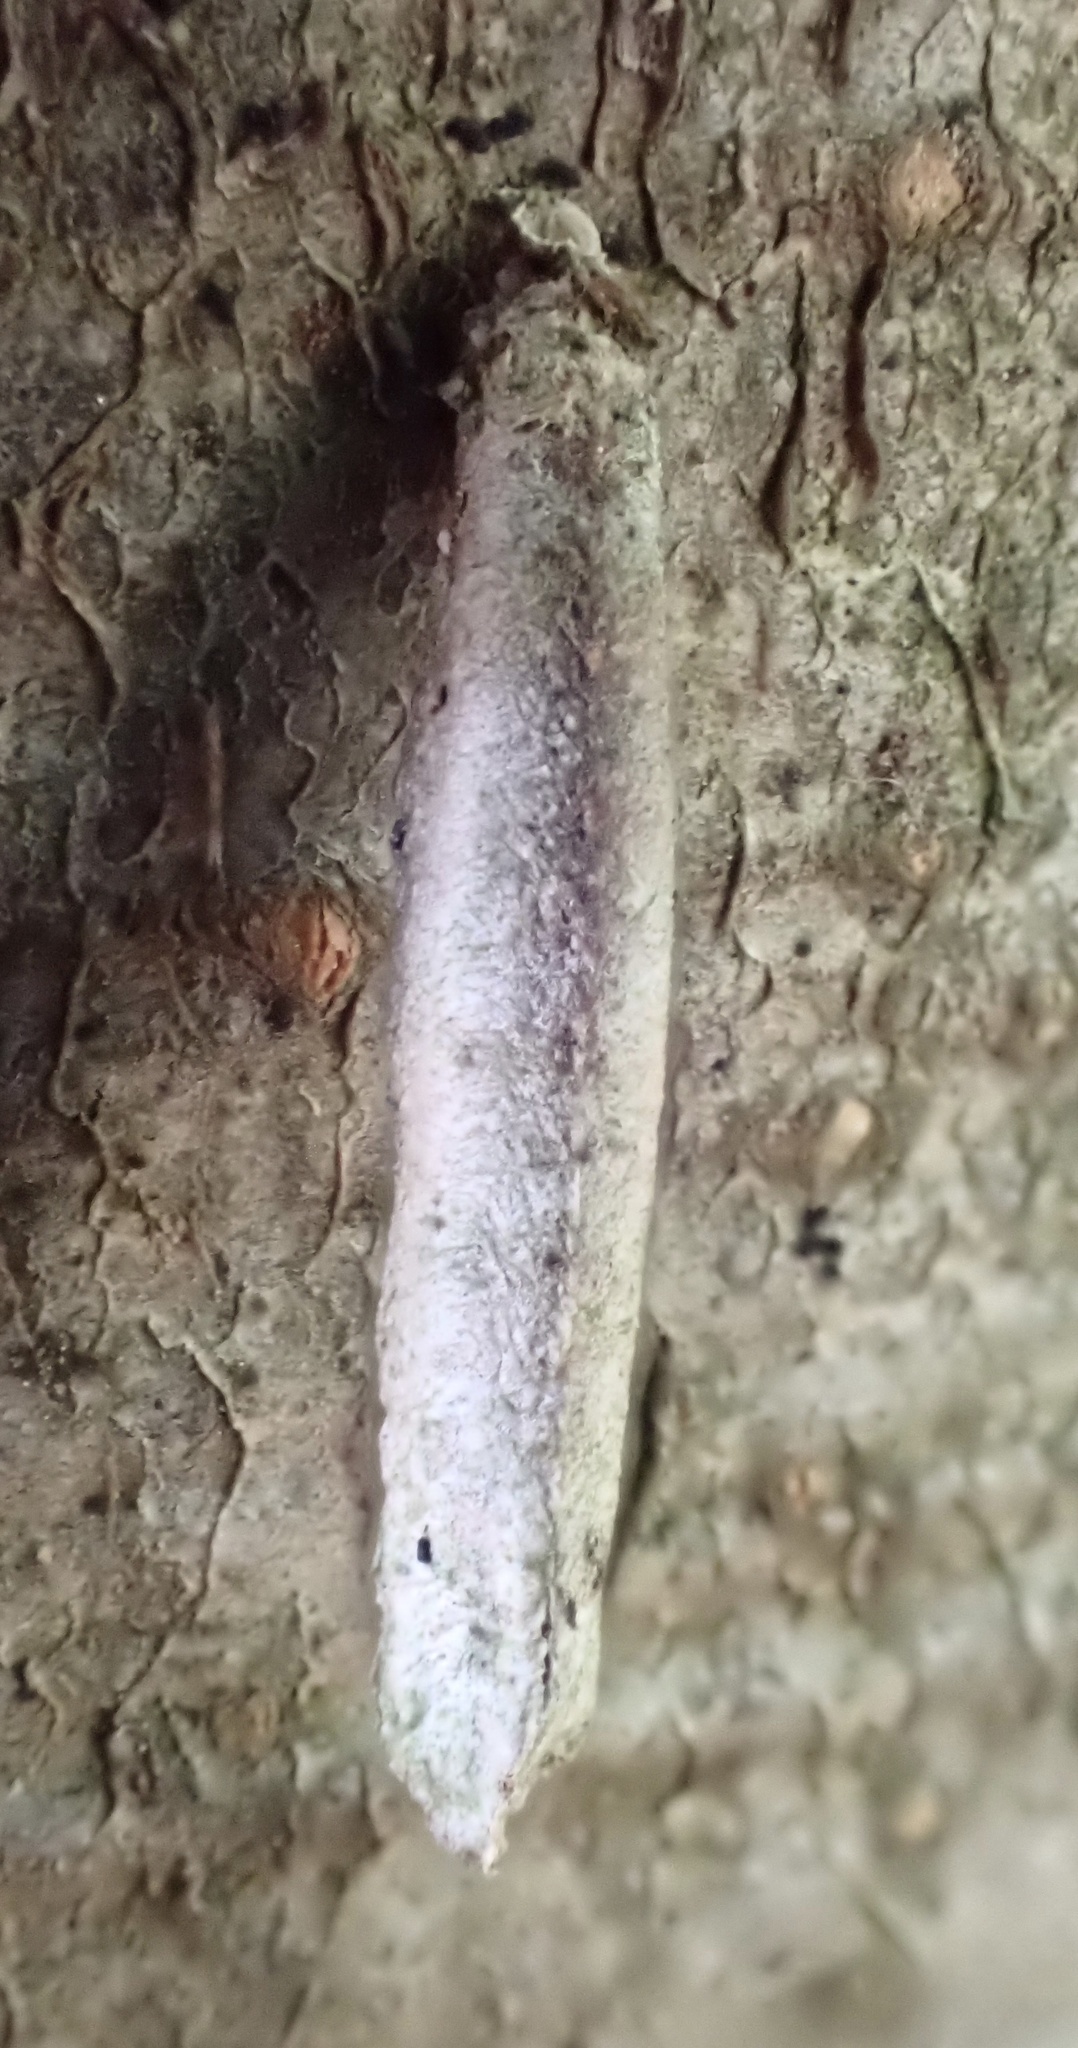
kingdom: Animalia
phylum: Arthropoda
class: Insecta
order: Lepidoptera
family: Psychidae
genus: Taleporia
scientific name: Taleporia tubulosa
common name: Brown smoke
